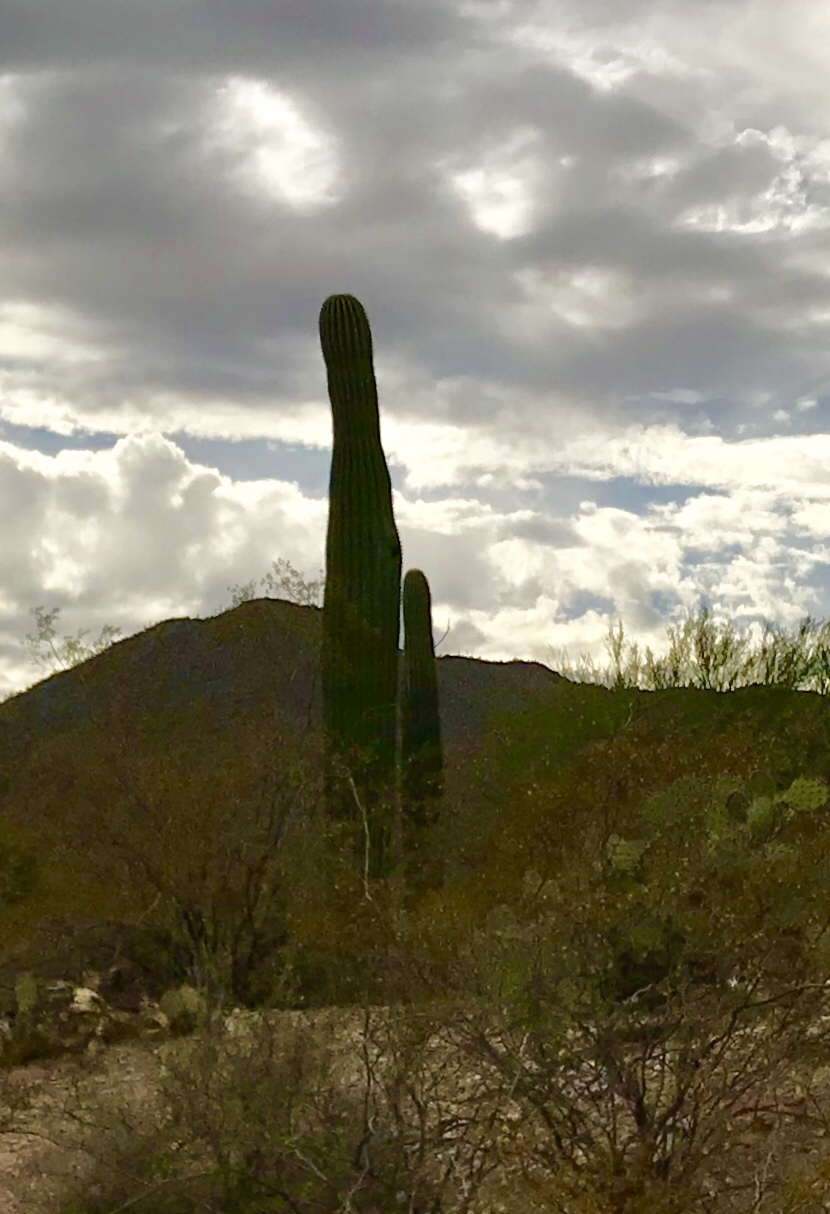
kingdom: Plantae
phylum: Tracheophyta
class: Magnoliopsida
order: Caryophyllales
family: Cactaceae
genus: Carnegiea
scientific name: Carnegiea gigantea
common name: Saguaro
